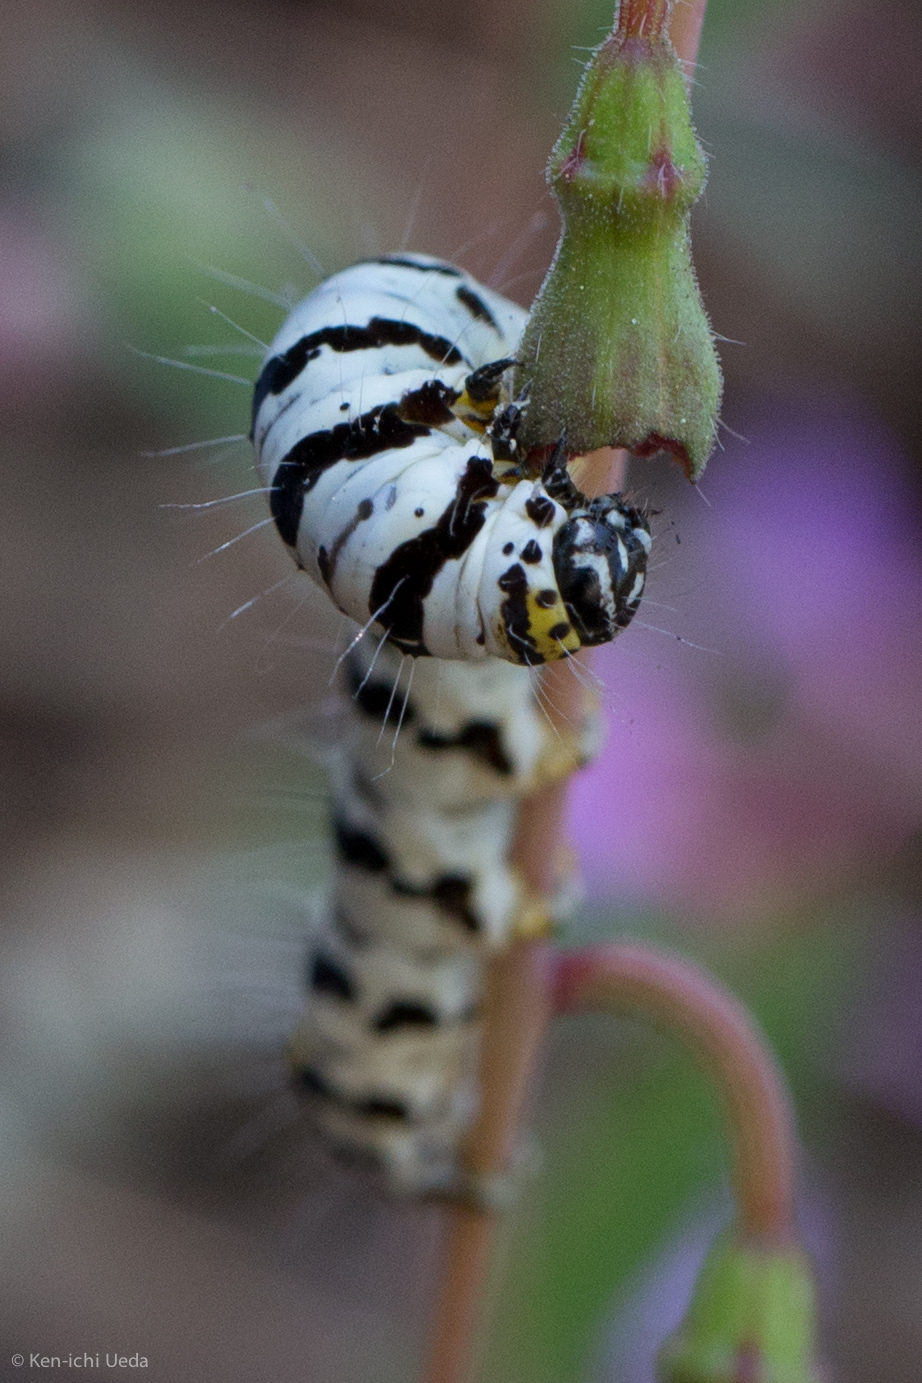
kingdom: Animalia
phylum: Arthropoda
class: Insecta
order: Lepidoptera
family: Noctuidae
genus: Alypia
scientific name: Alypia mariposa
